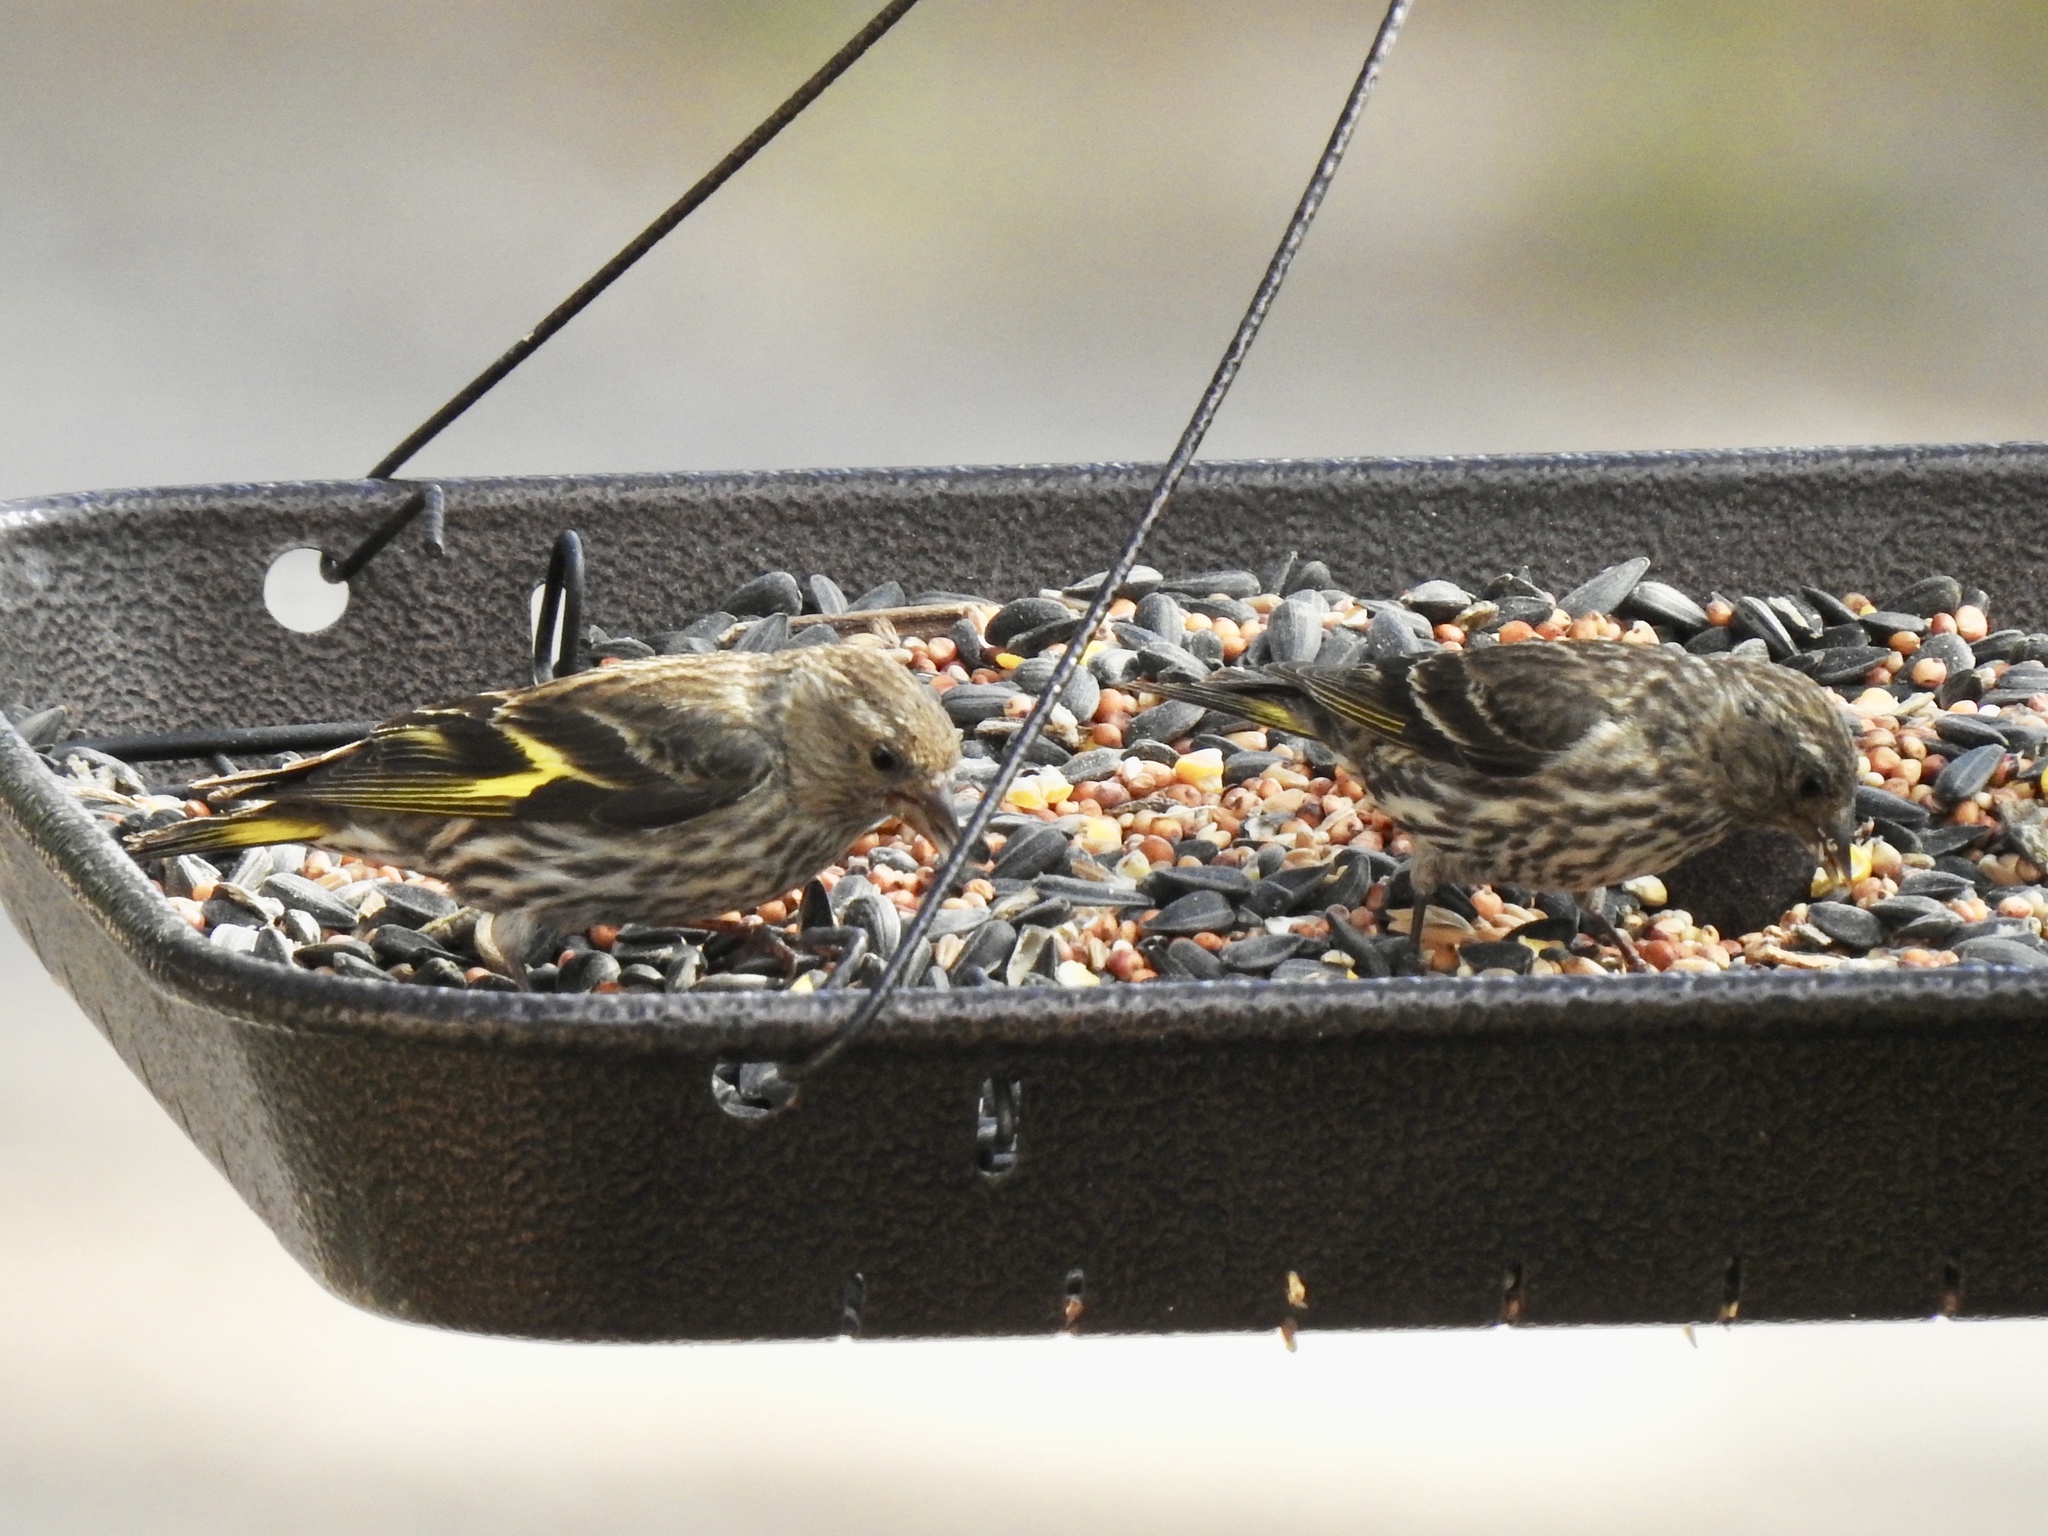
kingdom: Animalia
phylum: Chordata
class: Aves
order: Passeriformes
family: Fringillidae
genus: Spinus
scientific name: Spinus pinus
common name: Pine siskin
